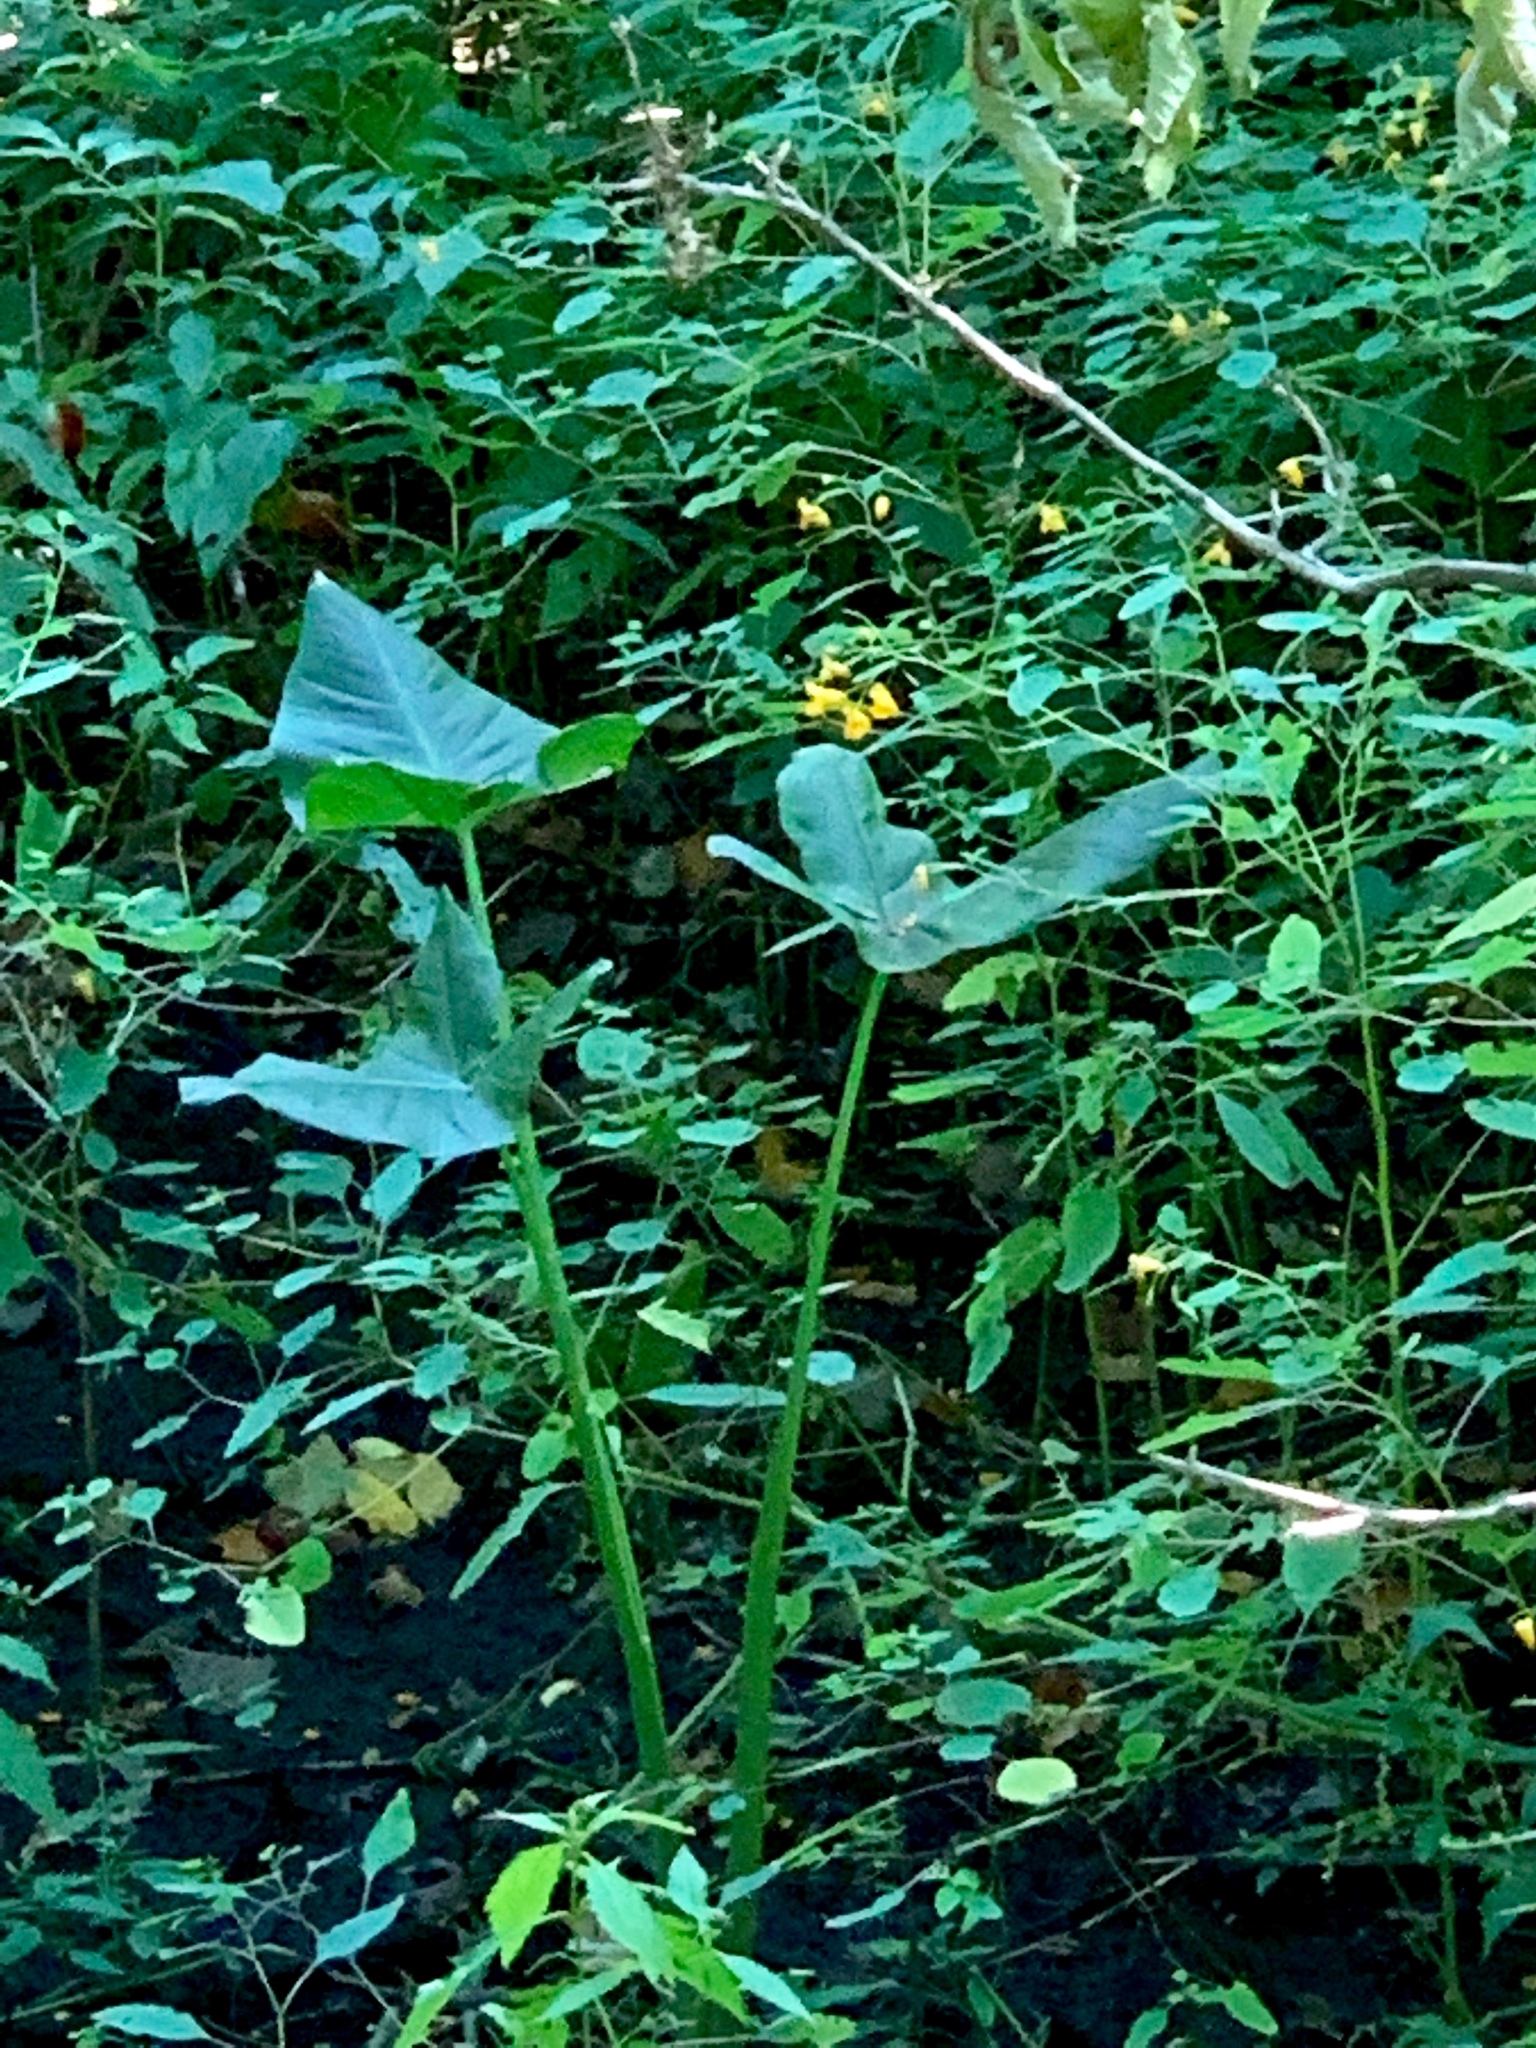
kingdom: Plantae
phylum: Tracheophyta
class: Liliopsida
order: Alismatales
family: Araceae
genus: Peltandra
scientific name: Peltandra virginica
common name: Arrow arum
